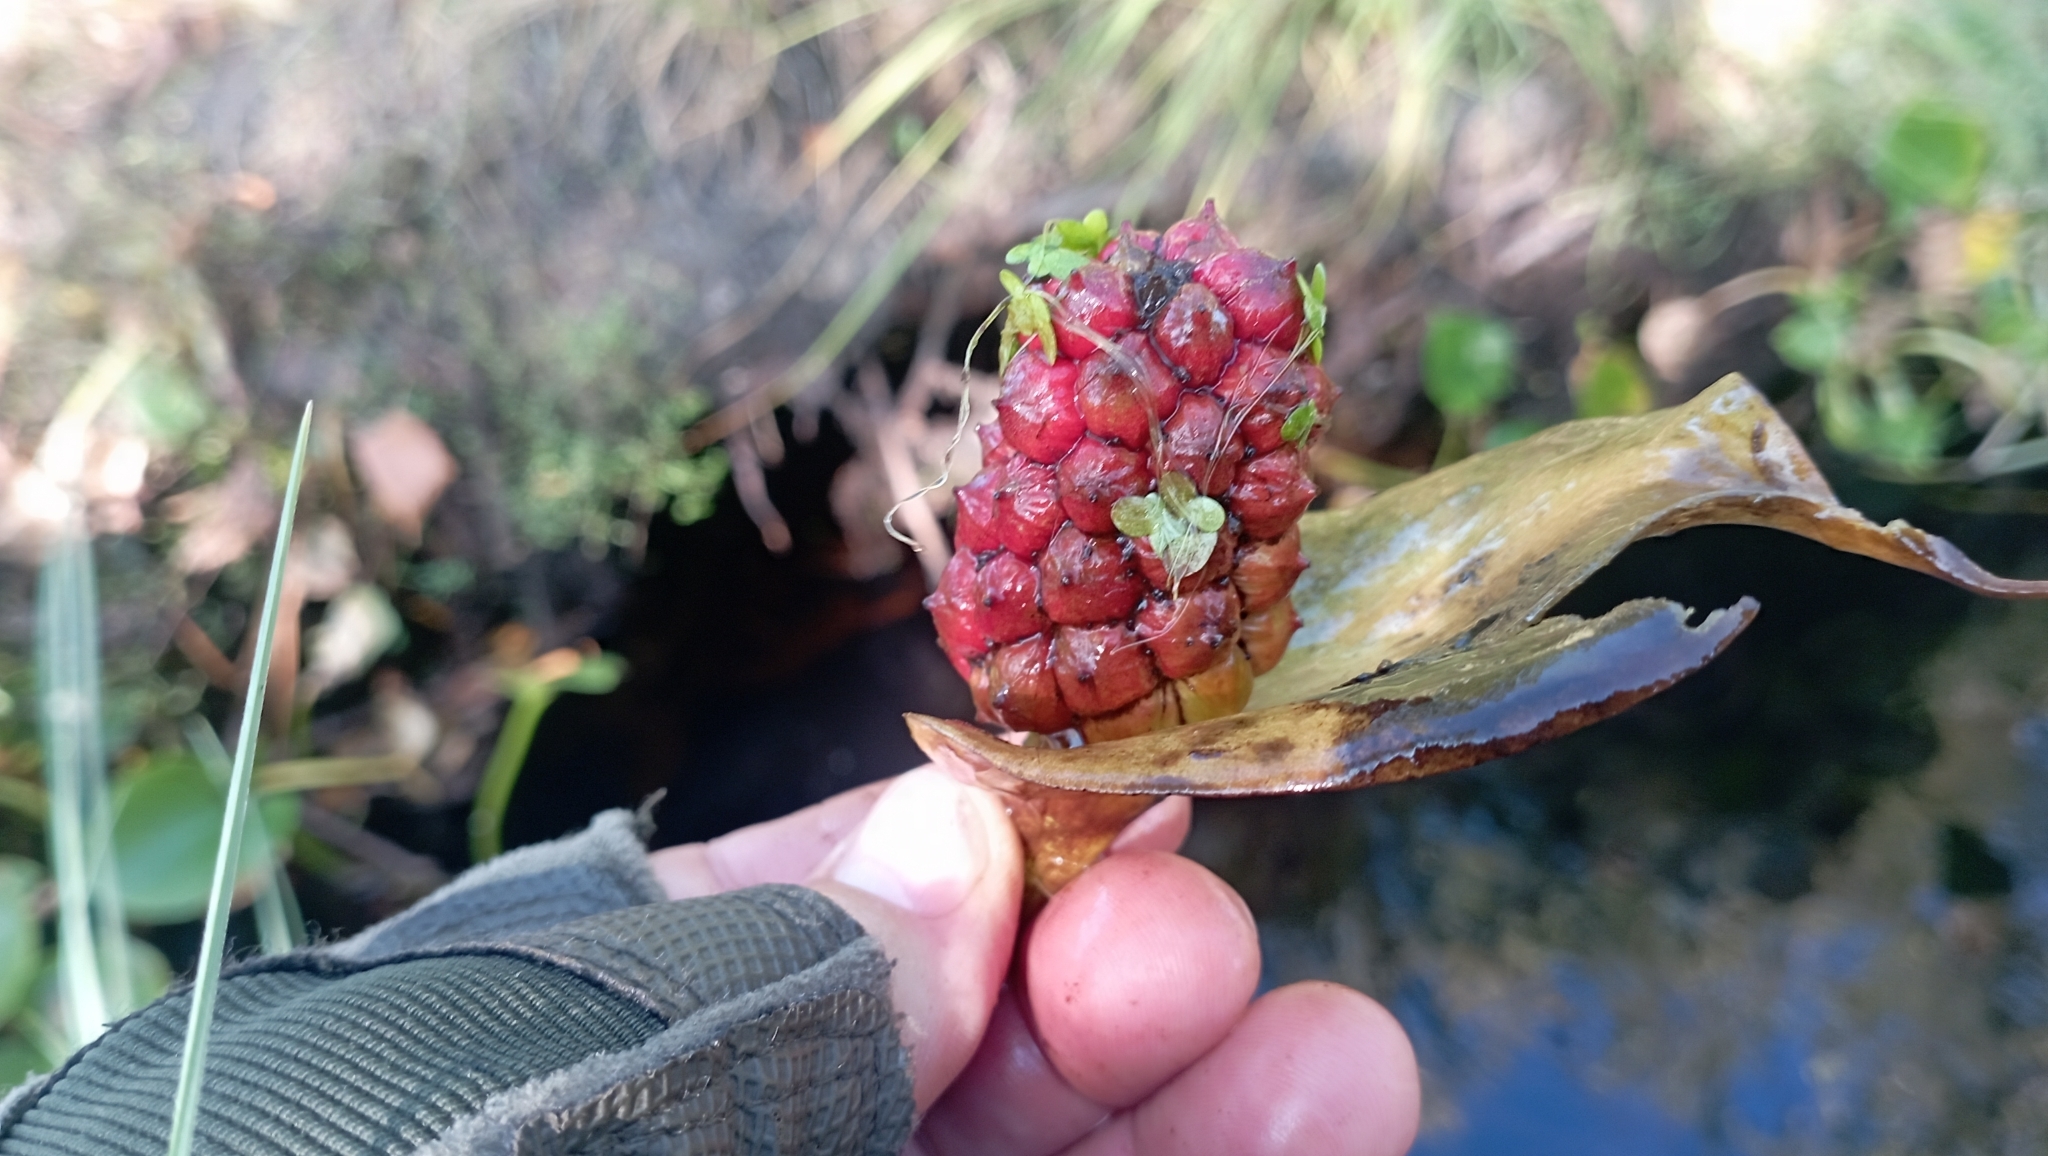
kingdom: Plantae
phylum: Tracheophyta
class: Liliopsida
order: Alismatales
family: Araceae
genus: Calla
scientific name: Calla palustris
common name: Bog arum
